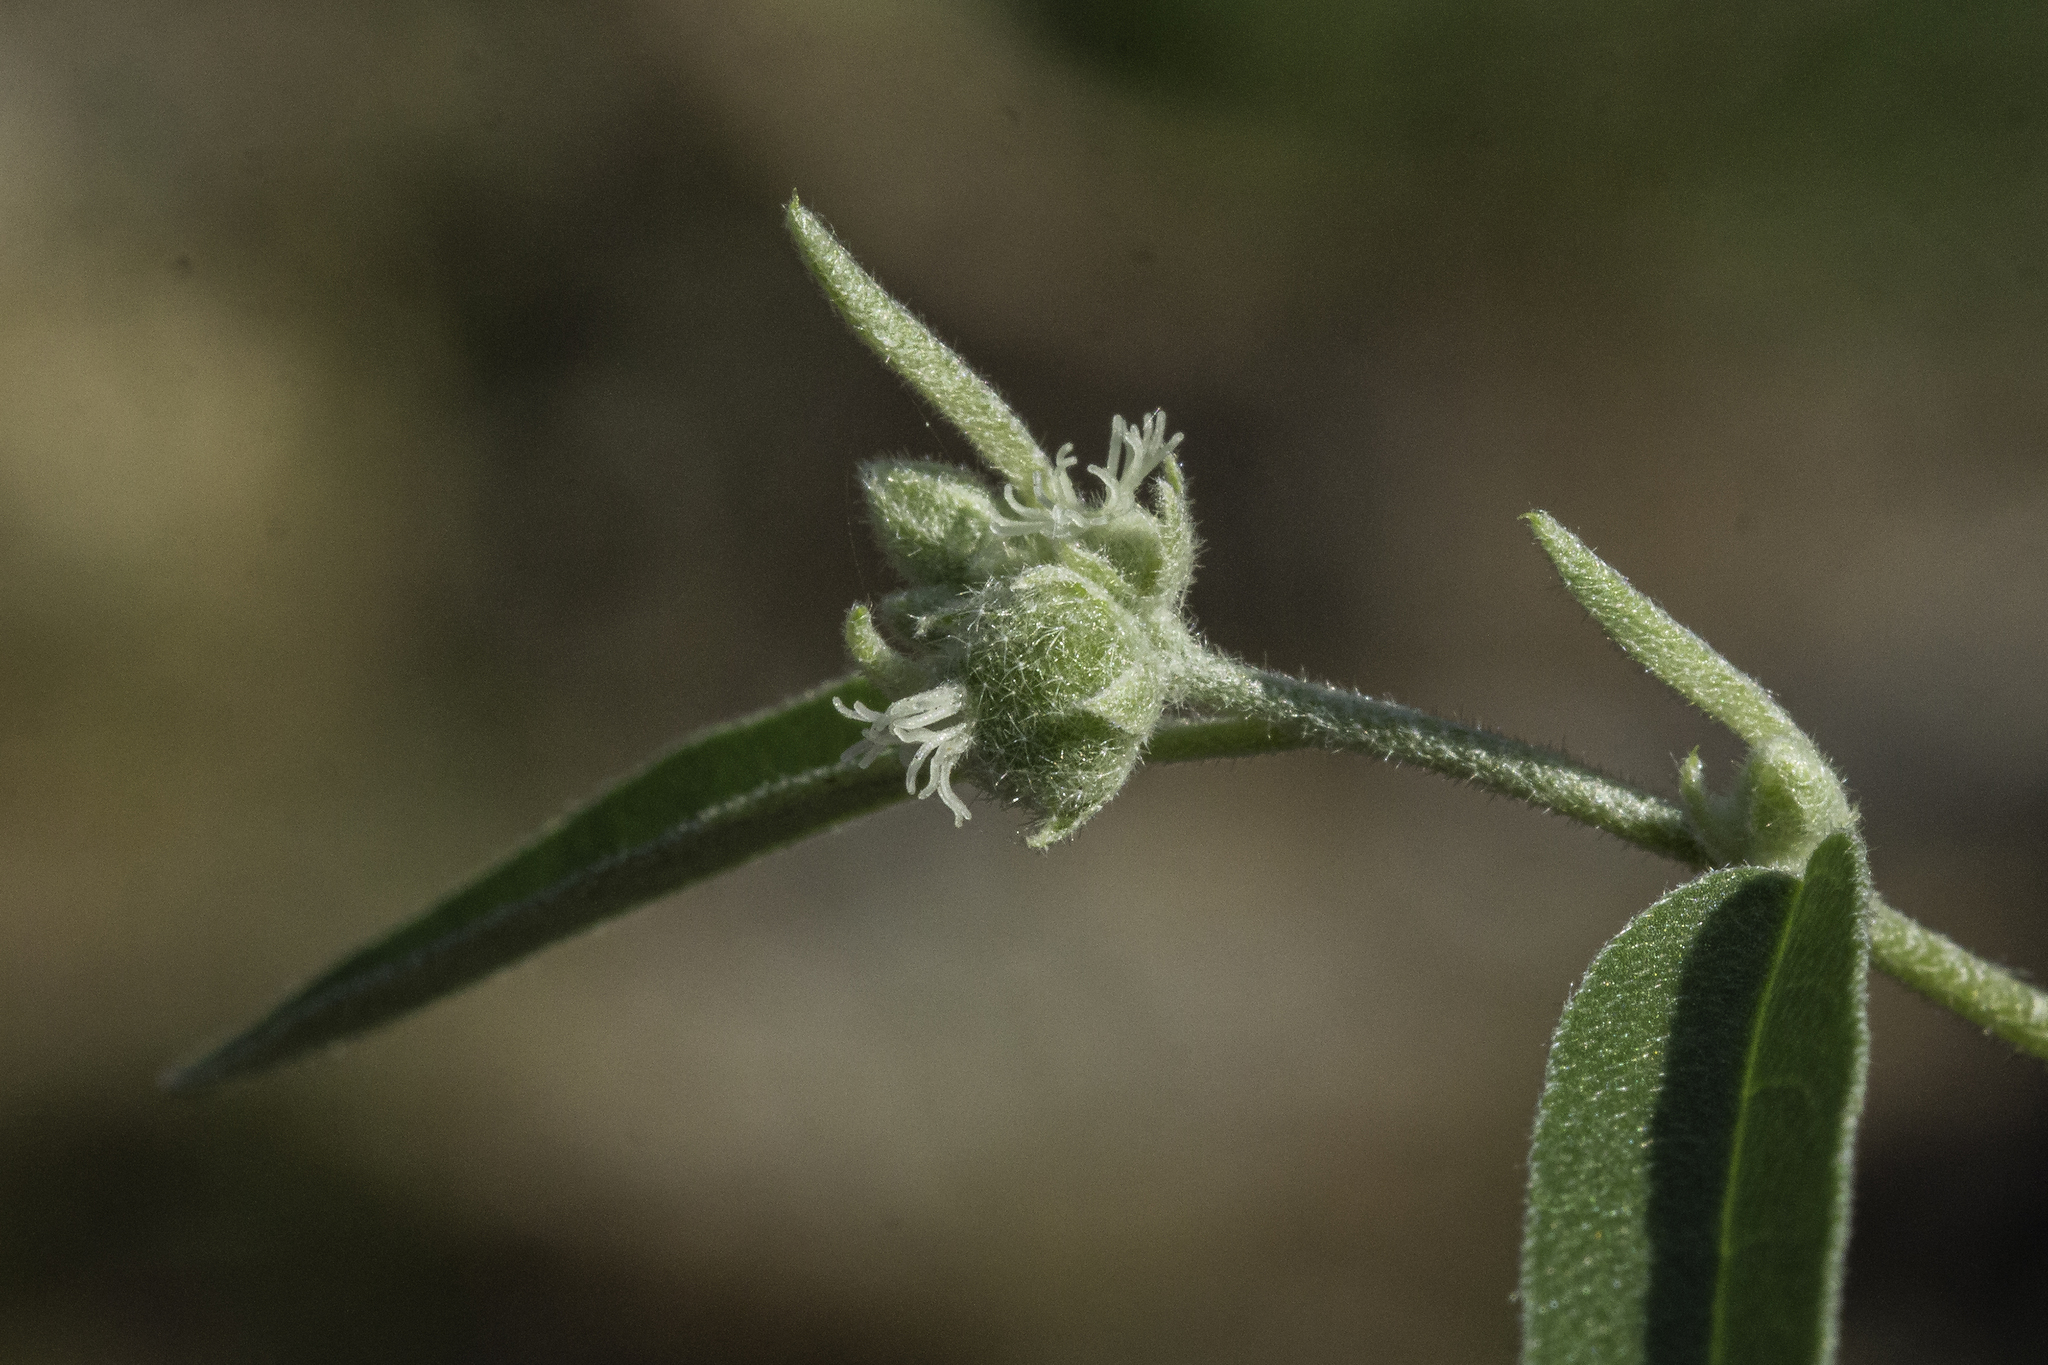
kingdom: Plantae
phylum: Tracheophyta
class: Magnoliopsida
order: Malpighiales
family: Euphorbiaceae
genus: Croton
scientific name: Croton texensis
